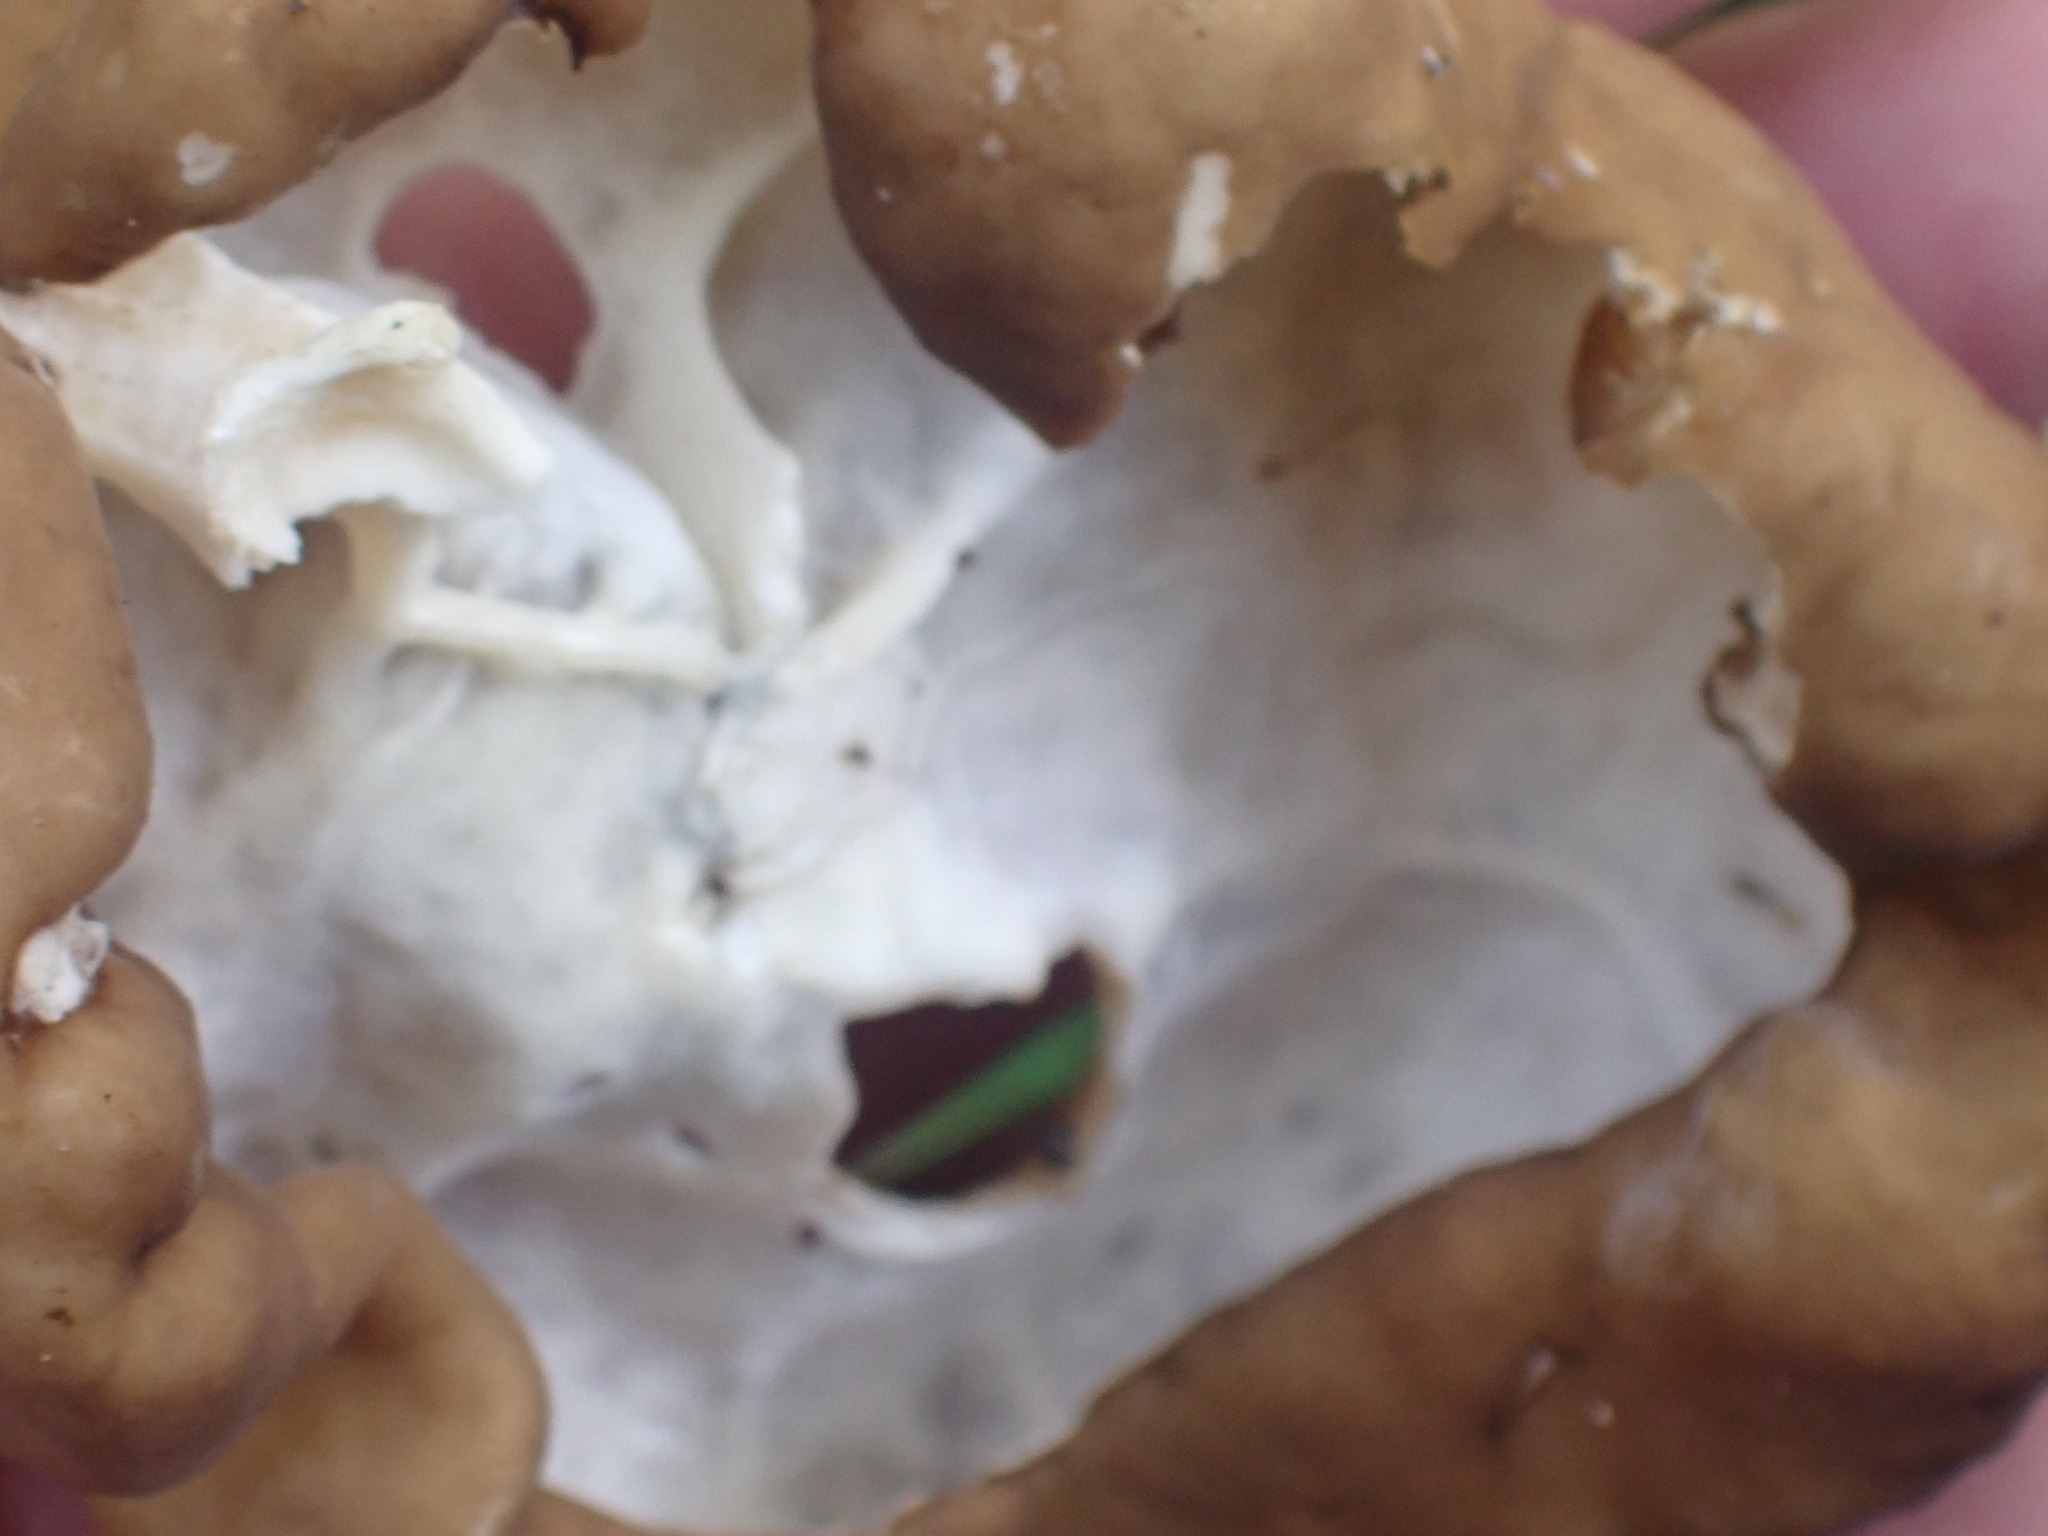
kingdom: Fungi
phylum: Ascomycota
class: Pezizomycetes
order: Pezizales
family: Discinaceae
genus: Gyromitra
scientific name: Gyromitra californica
